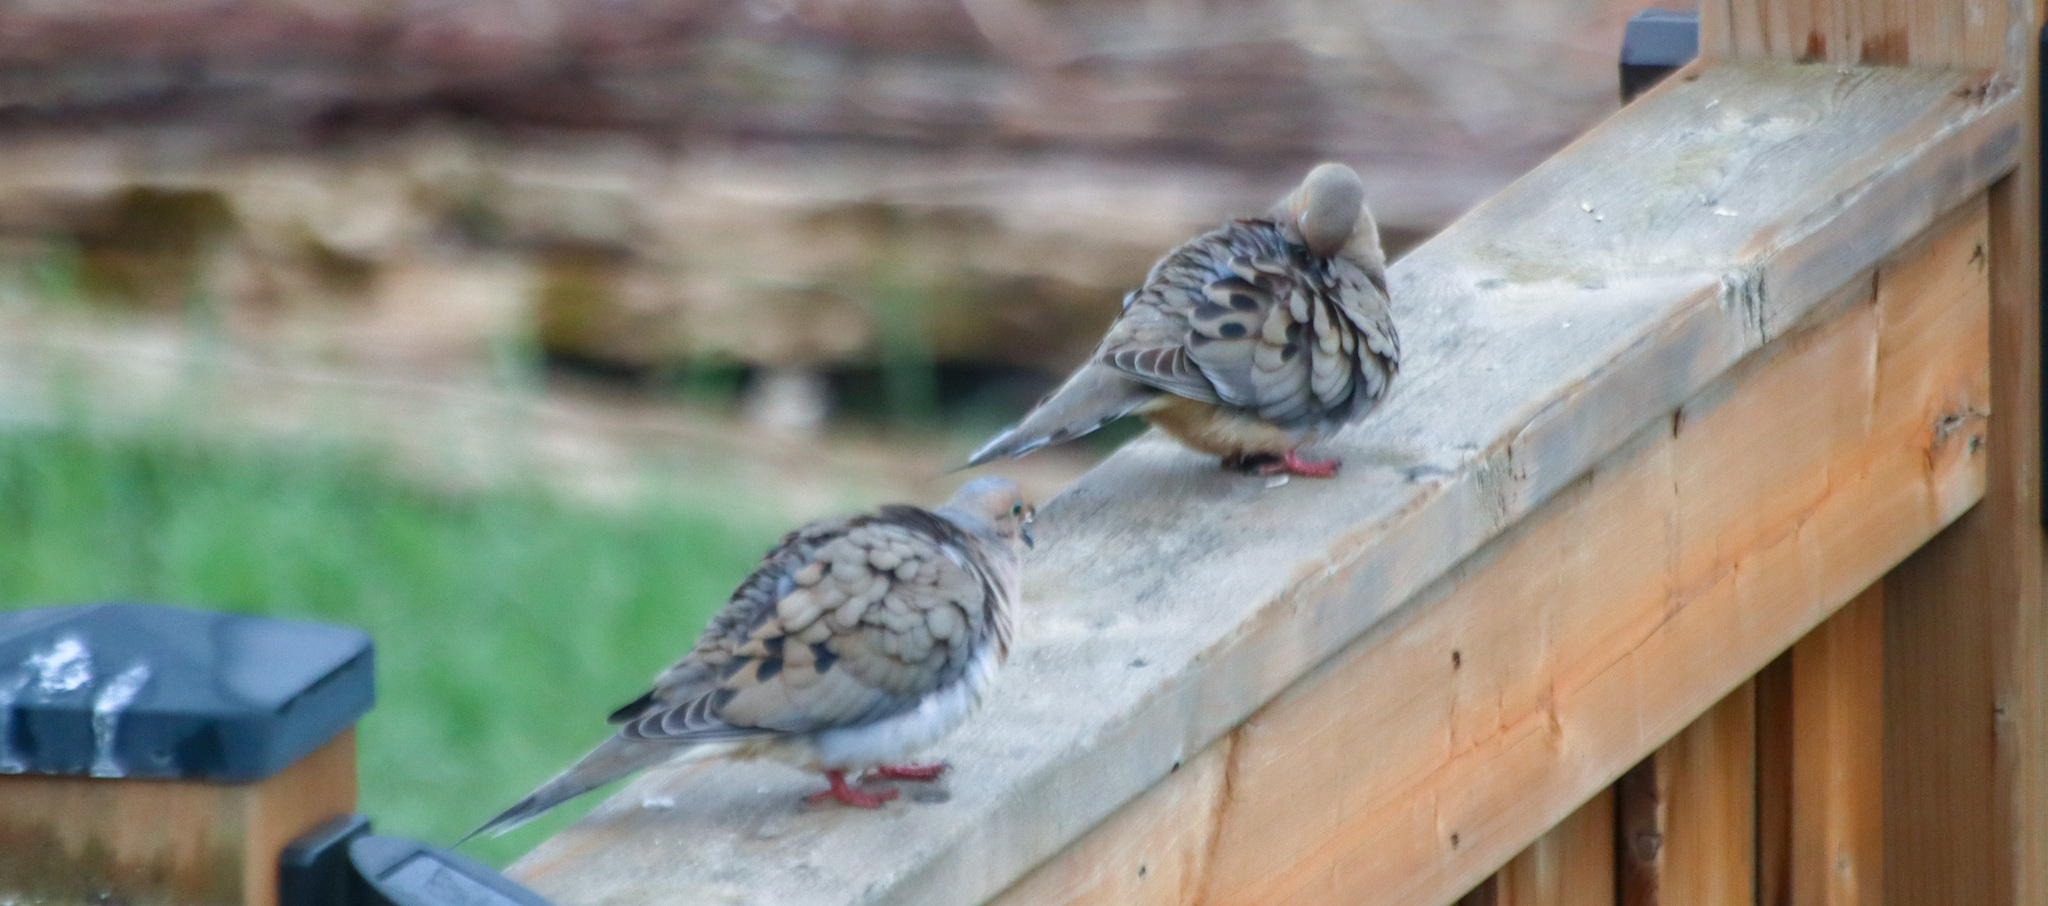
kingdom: Animalia
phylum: Chordata
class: Aves
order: Columbiformes
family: Columbidae
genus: Zenaida
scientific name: Zenaida macroura
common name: Mourning dove
